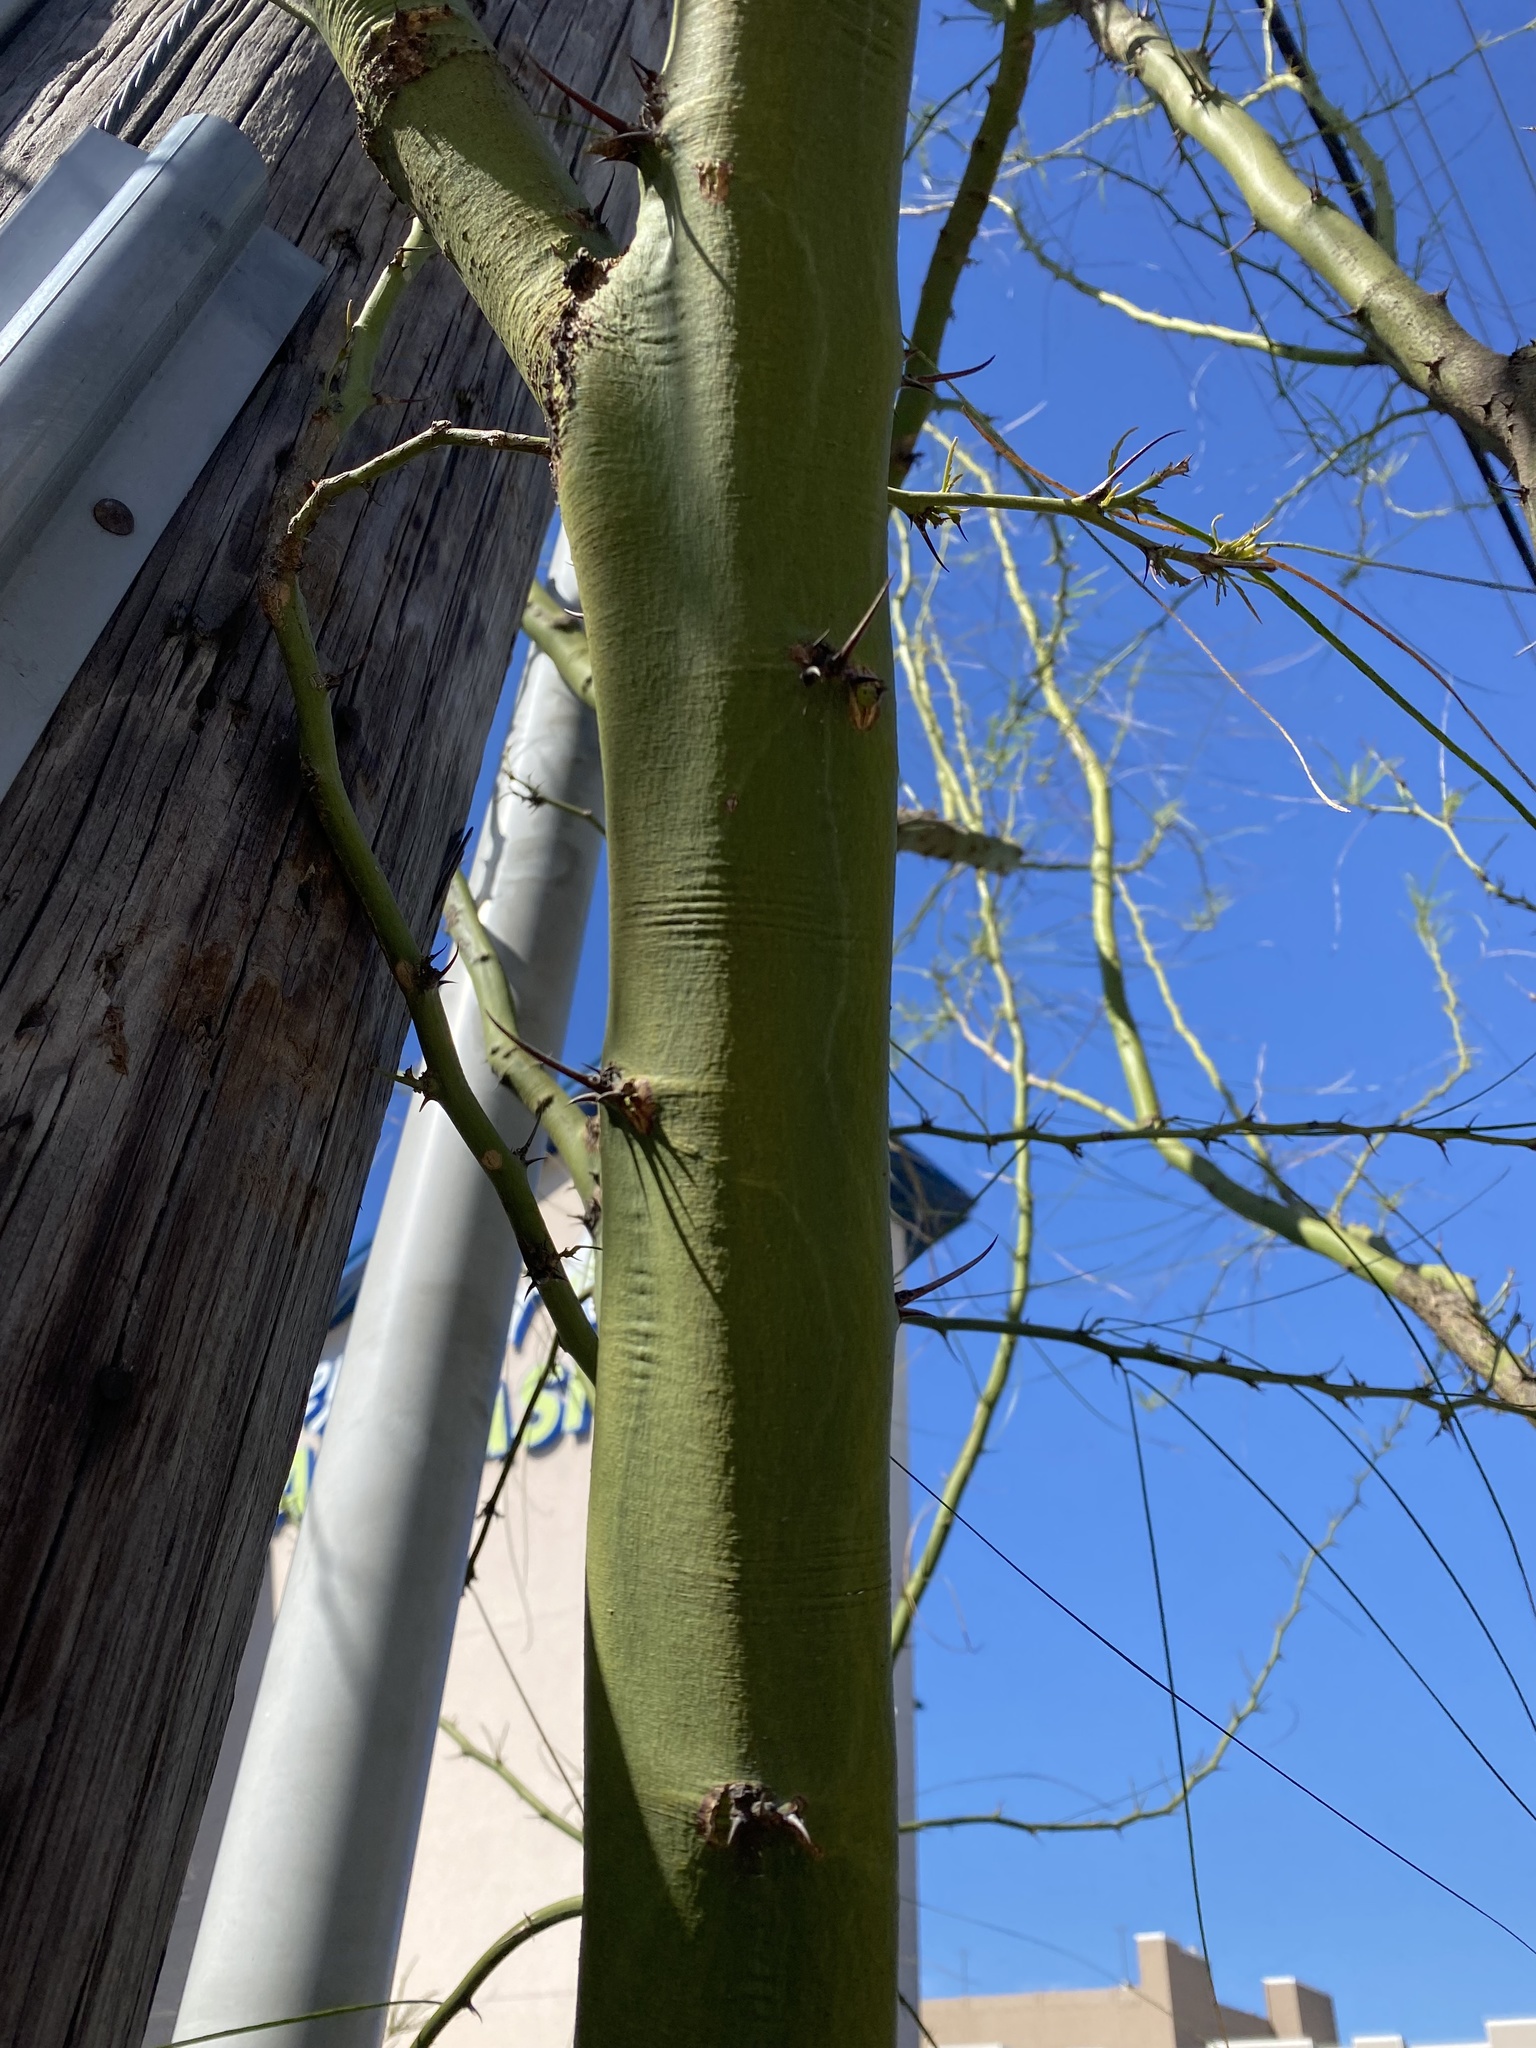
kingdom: Plantae
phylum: Tracheophyta
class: Magnoliopsida
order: Fabales
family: Fabaceae
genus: Parkinsonia
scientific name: Parkinsonia aculeata
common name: Jerusalem thorn
